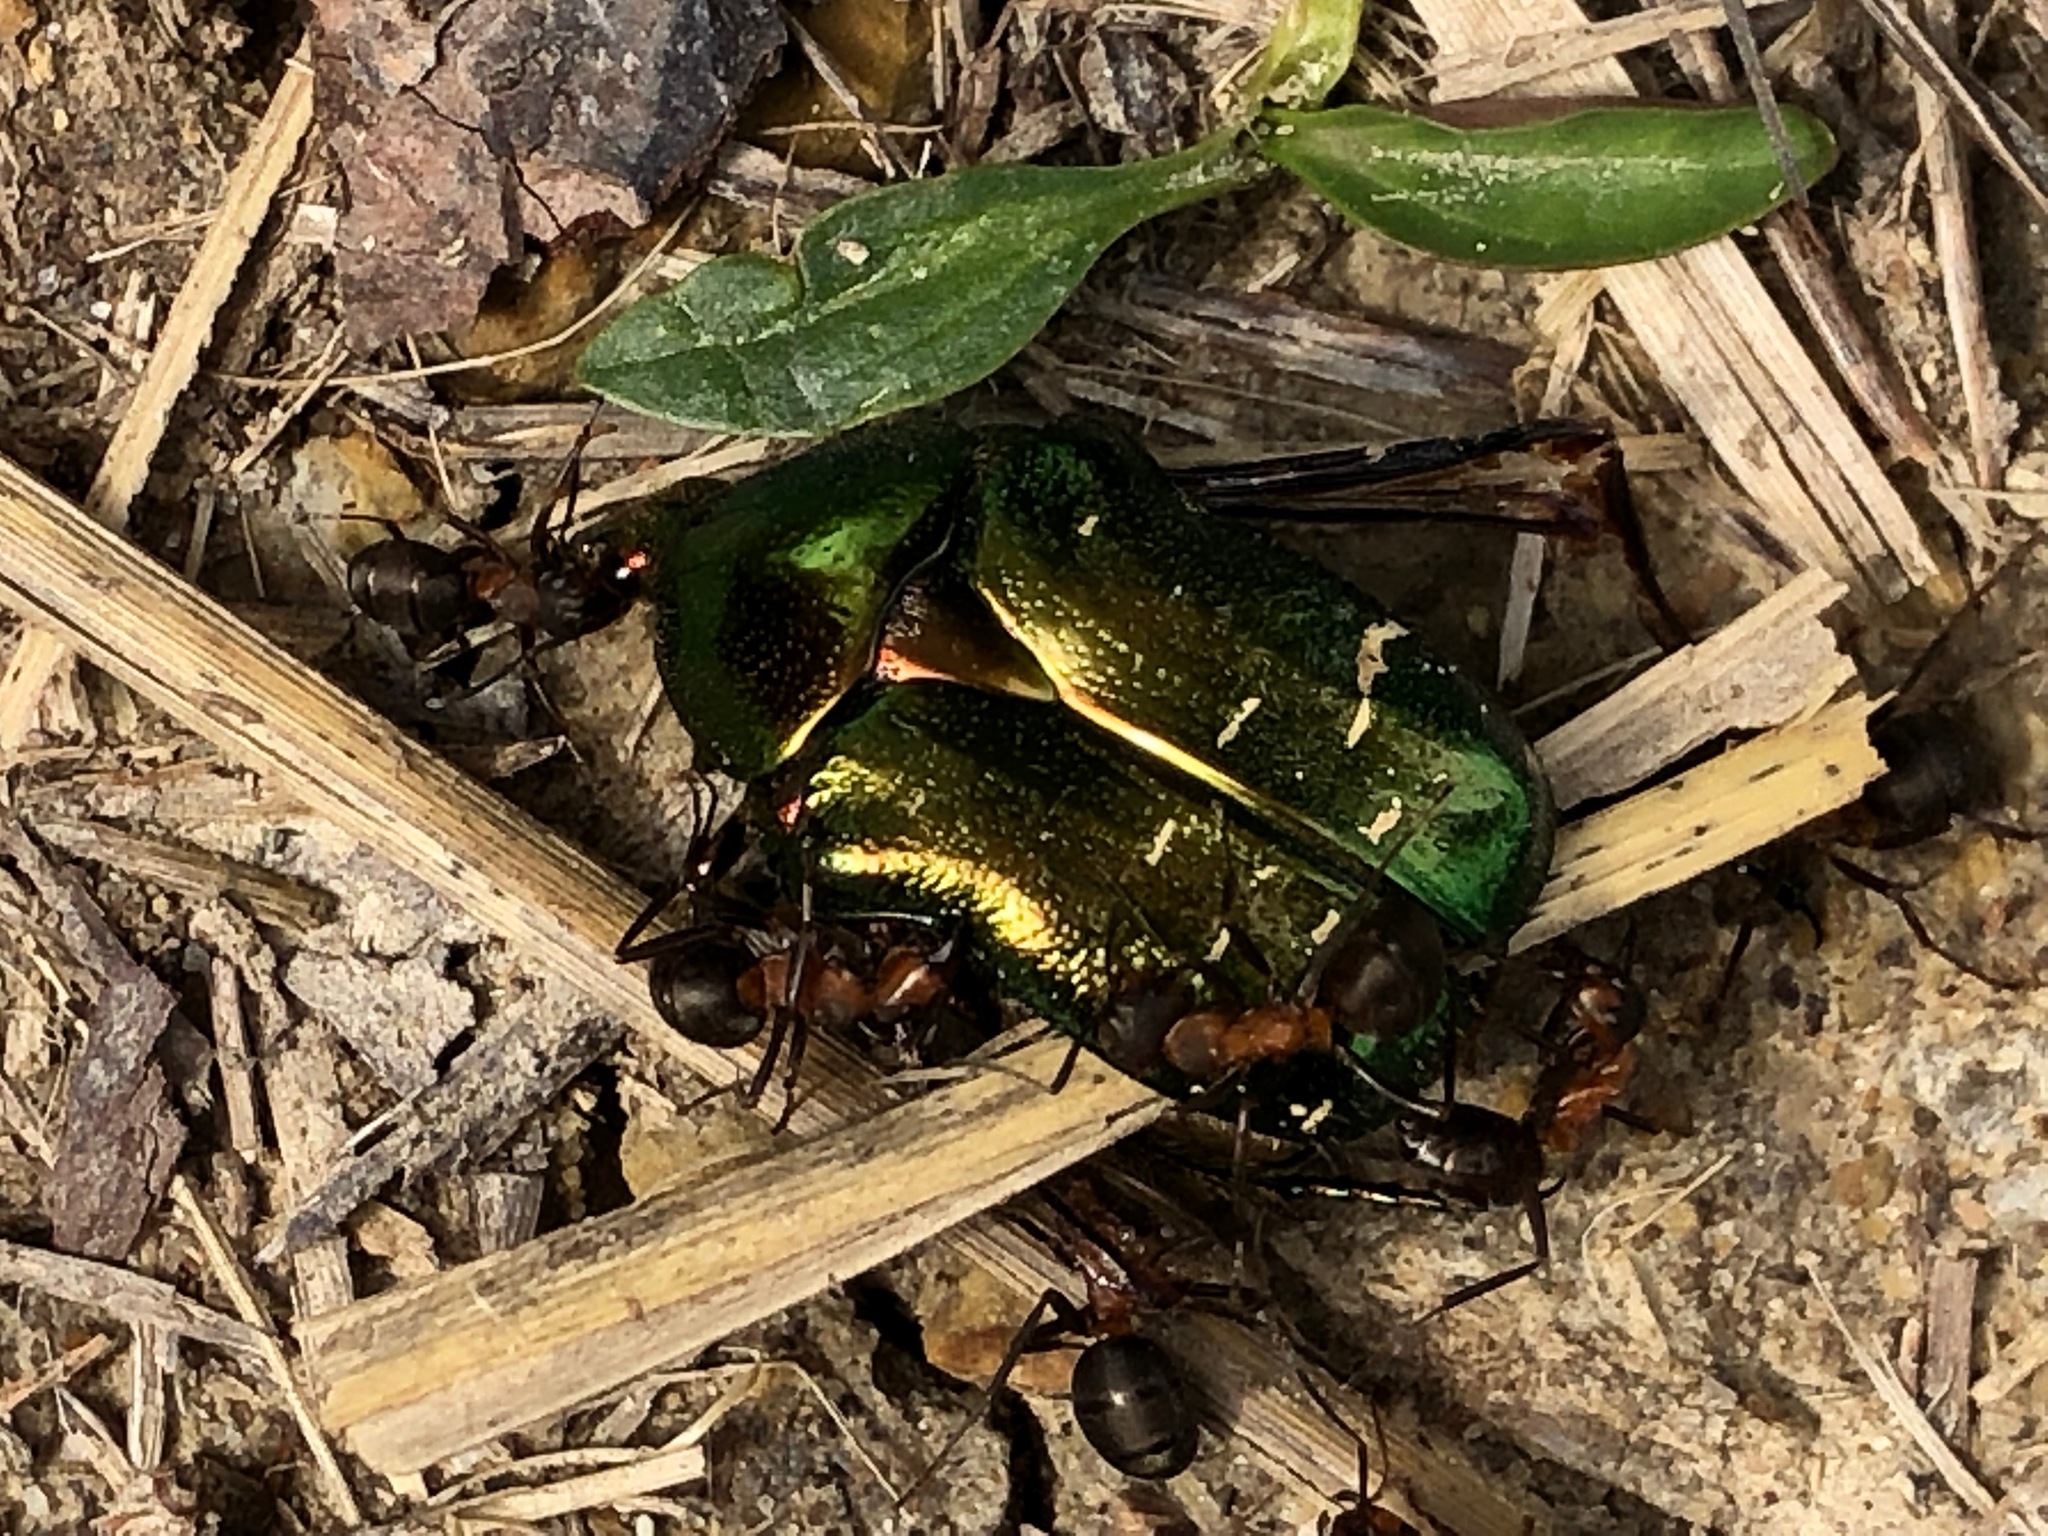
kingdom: Animalia
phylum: Arthropoda
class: Insecta
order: Coleoptera
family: Scarabaeidae
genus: Cetonia
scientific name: Cetonia aurata
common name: Rose chafer
